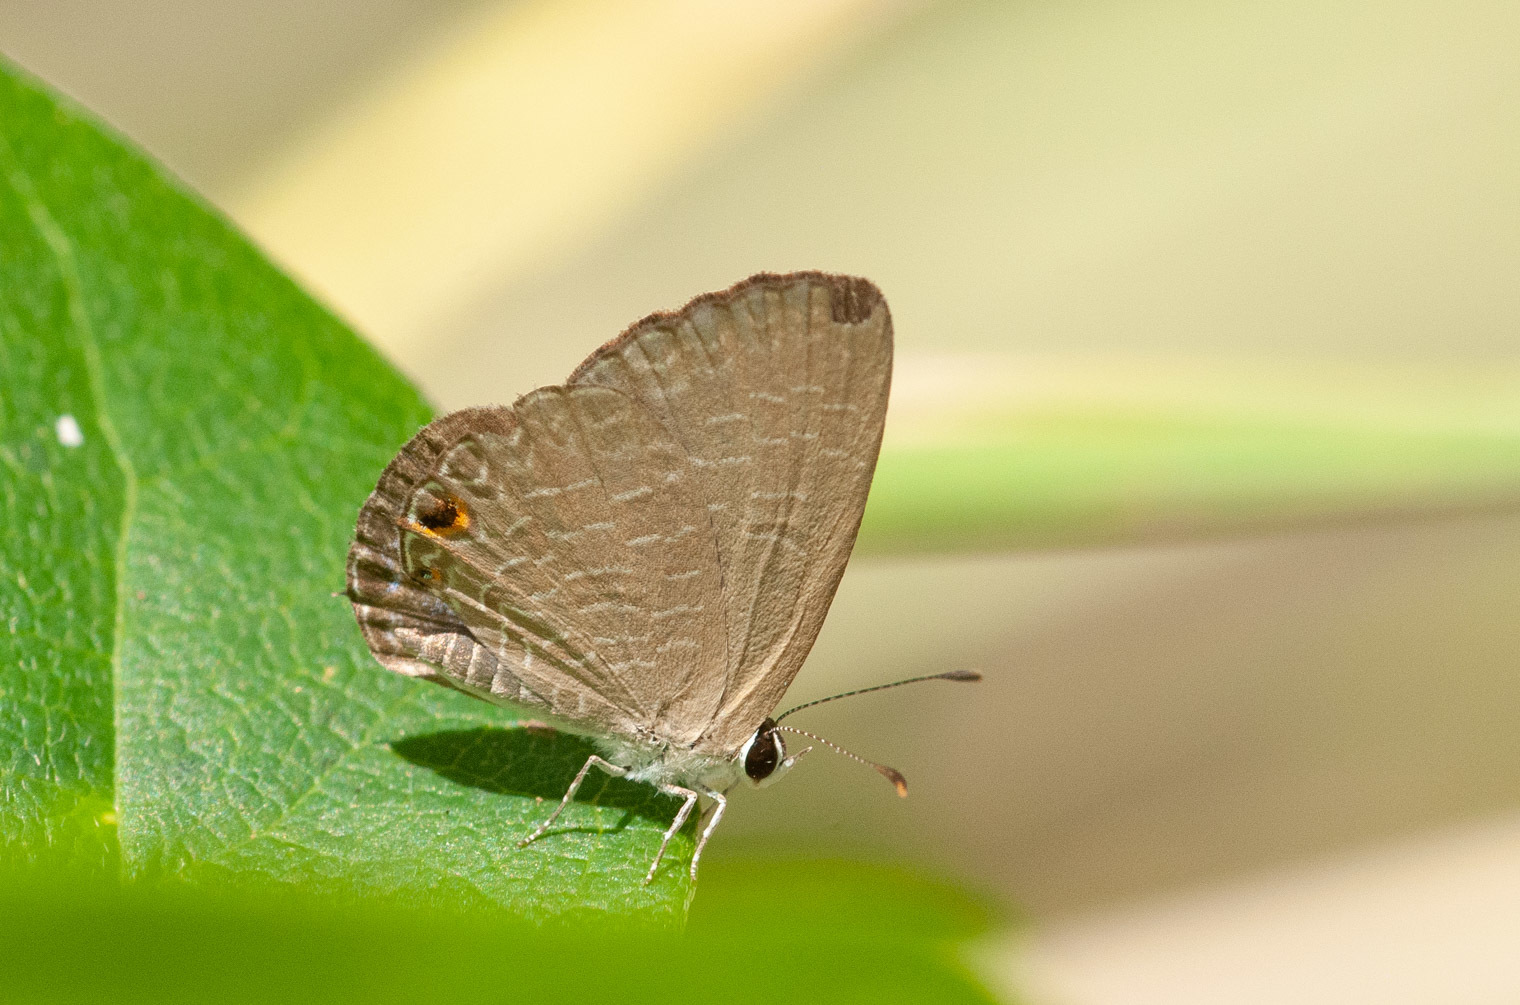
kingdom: Animalia
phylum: Arthropoda
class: Insecta
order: Lepidoptera
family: Lycaenidae
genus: Jamides
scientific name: Jamides phaseli
